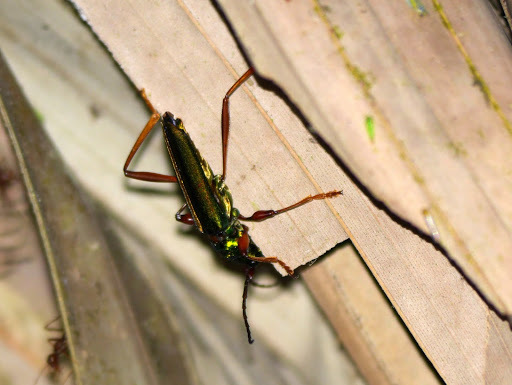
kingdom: Animalia
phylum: Arthropoda
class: Insecta
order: Coleoptera
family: Cerambycidae
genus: Chromalizus
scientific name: Chromalizus afer
